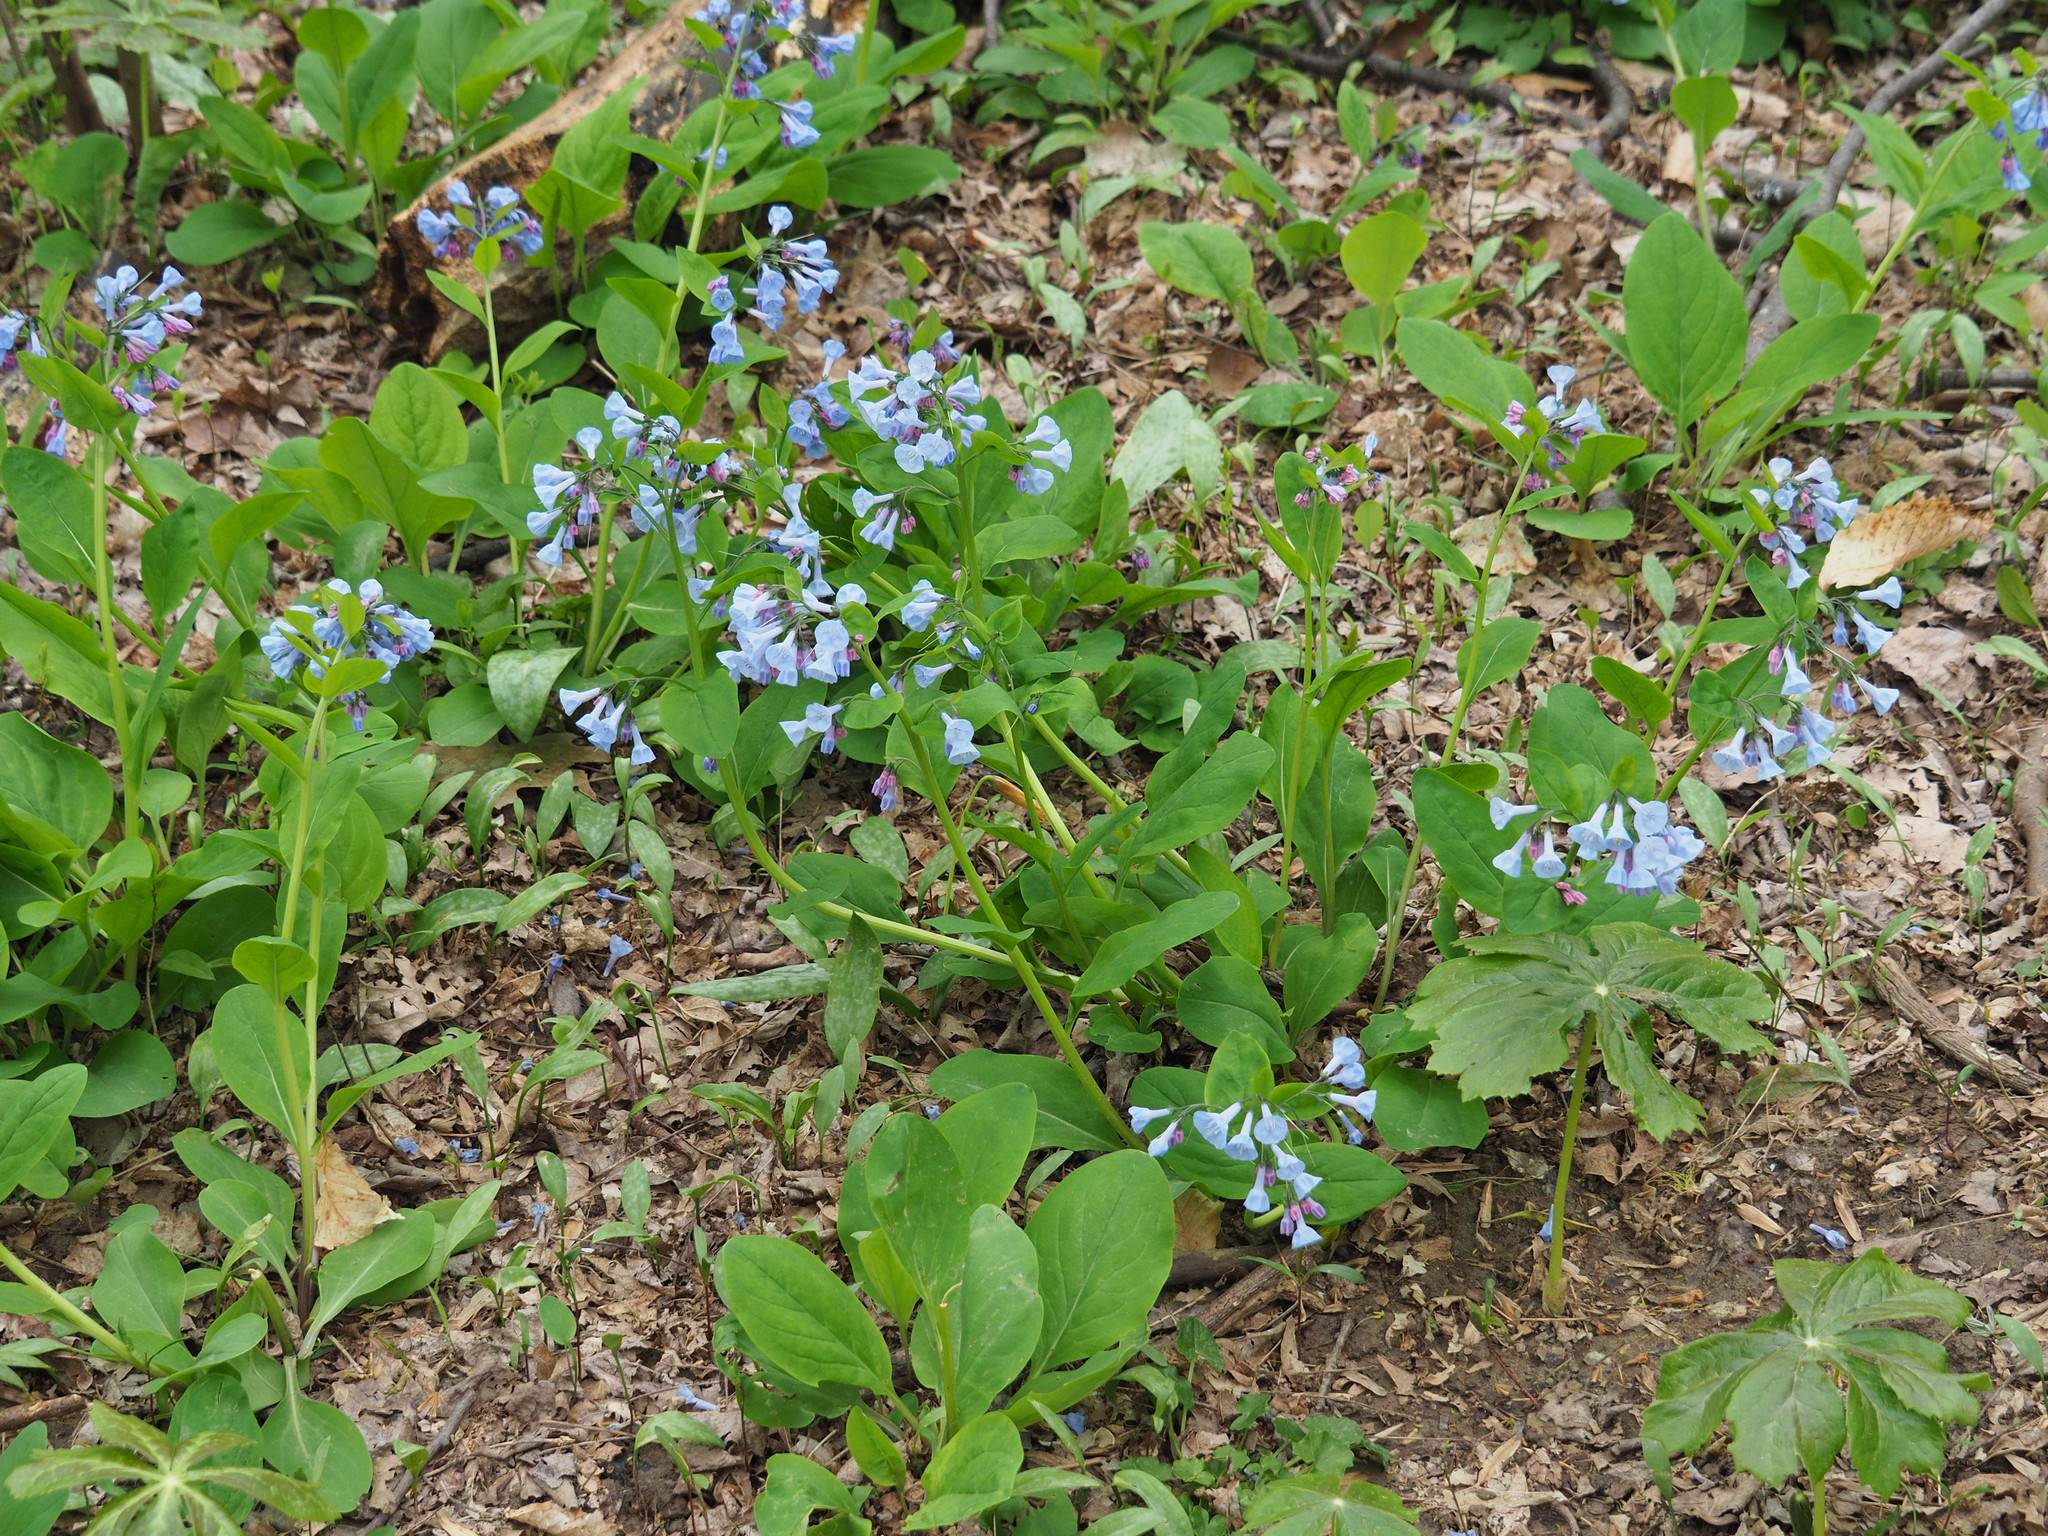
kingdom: Plantae
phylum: Tracheophyta
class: Magnoliopsida
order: Boraginales
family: Boraginaceae
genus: Mertensia
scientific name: Mertensia virginica
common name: Virginia bluebells
